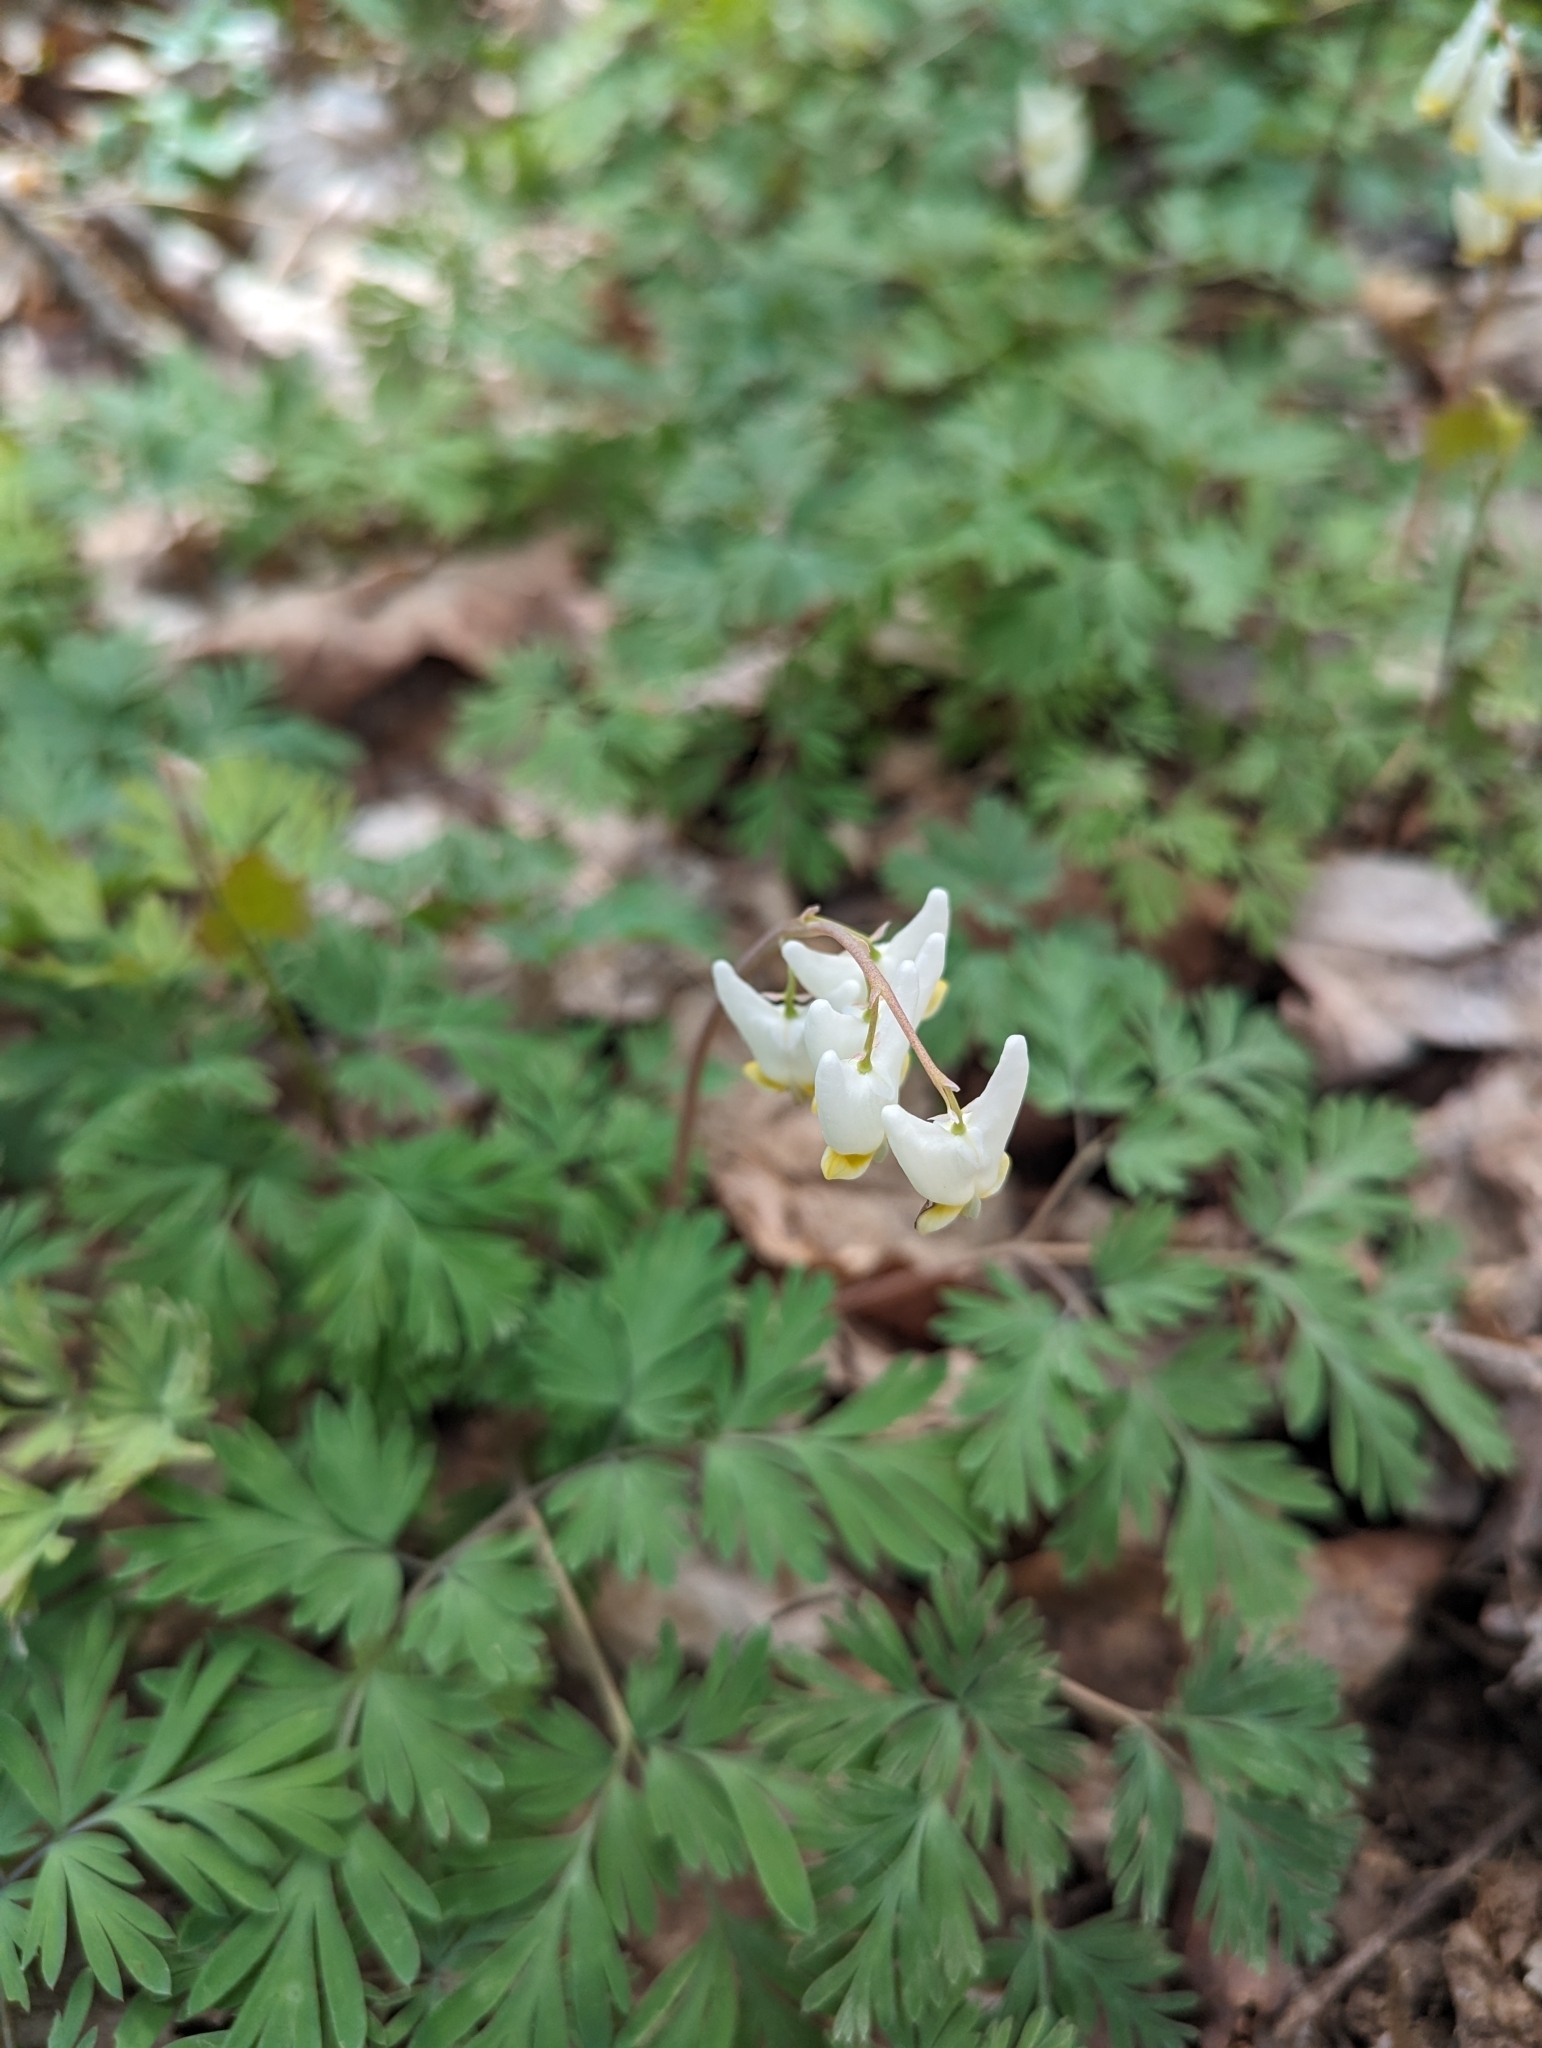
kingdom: Plantae
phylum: Tracheophyta
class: Magnoliopsida
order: Ranunculales
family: Papaveraceae
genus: Dicentra
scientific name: Dicentra cucullaria
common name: Dutchman's breeches
